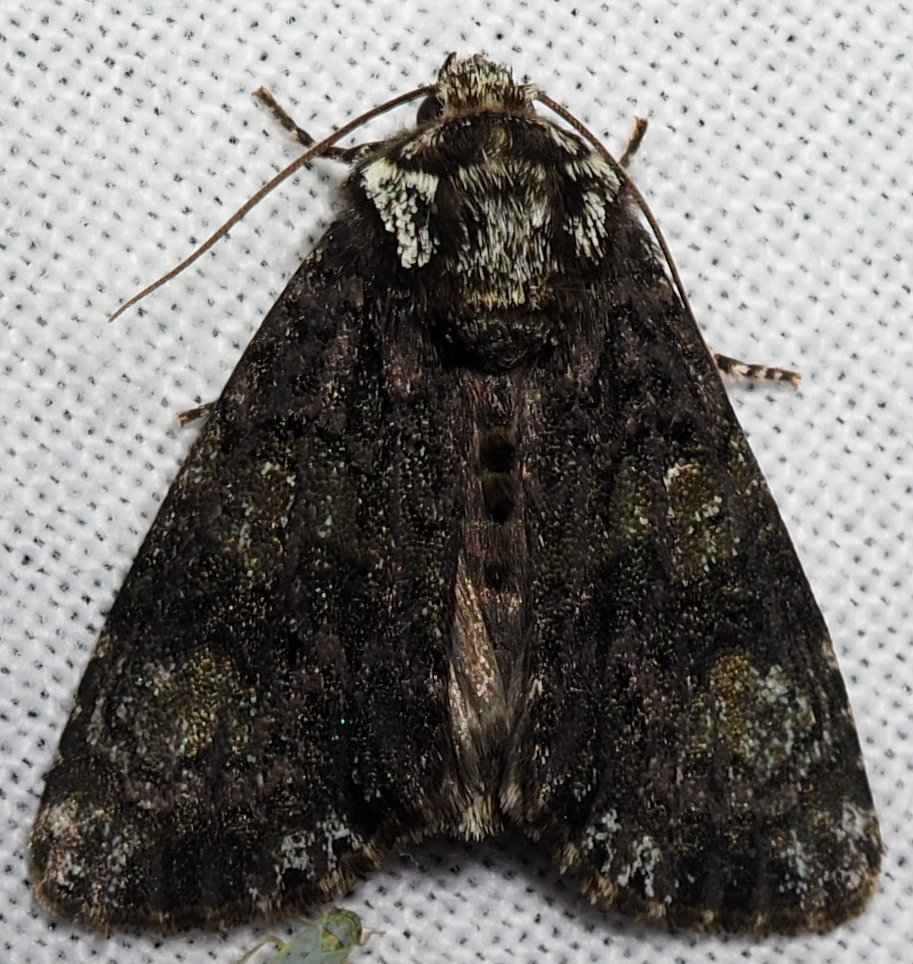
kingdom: Animalia
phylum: Arthropoda
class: Insecta
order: Lepidoptera
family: Noctuidae
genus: Craniophora
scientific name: Craniophora ligustri
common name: Coronet
